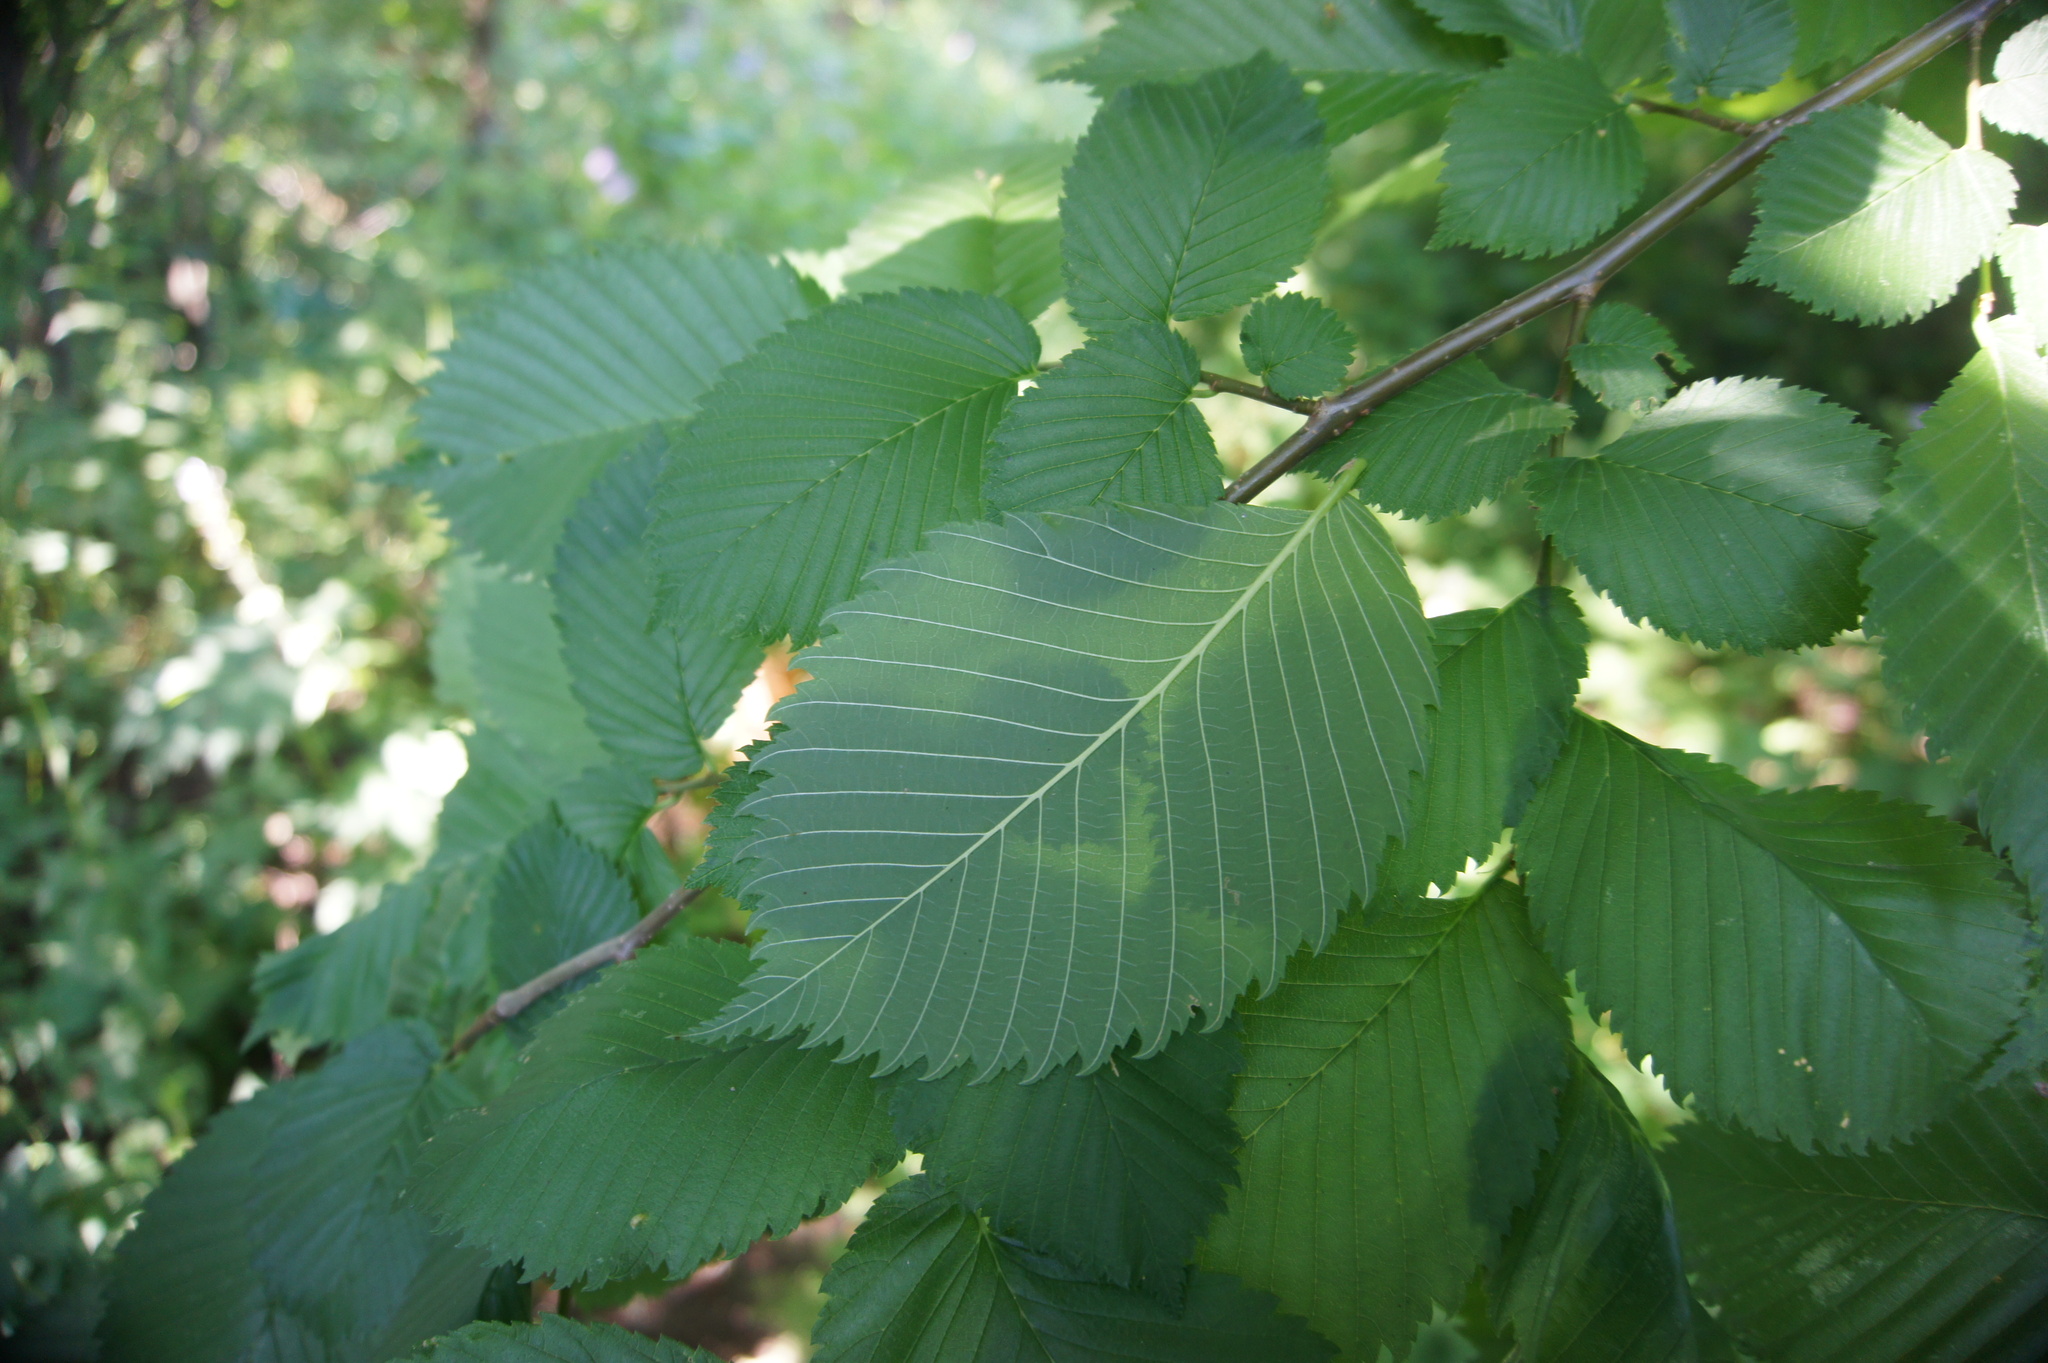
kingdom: Plantae
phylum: Tracheophyta
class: Magnoliopsida
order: Rosales
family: Ulmaceae
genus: Ulmus
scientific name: Ulmus laevis
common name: European white-elm
